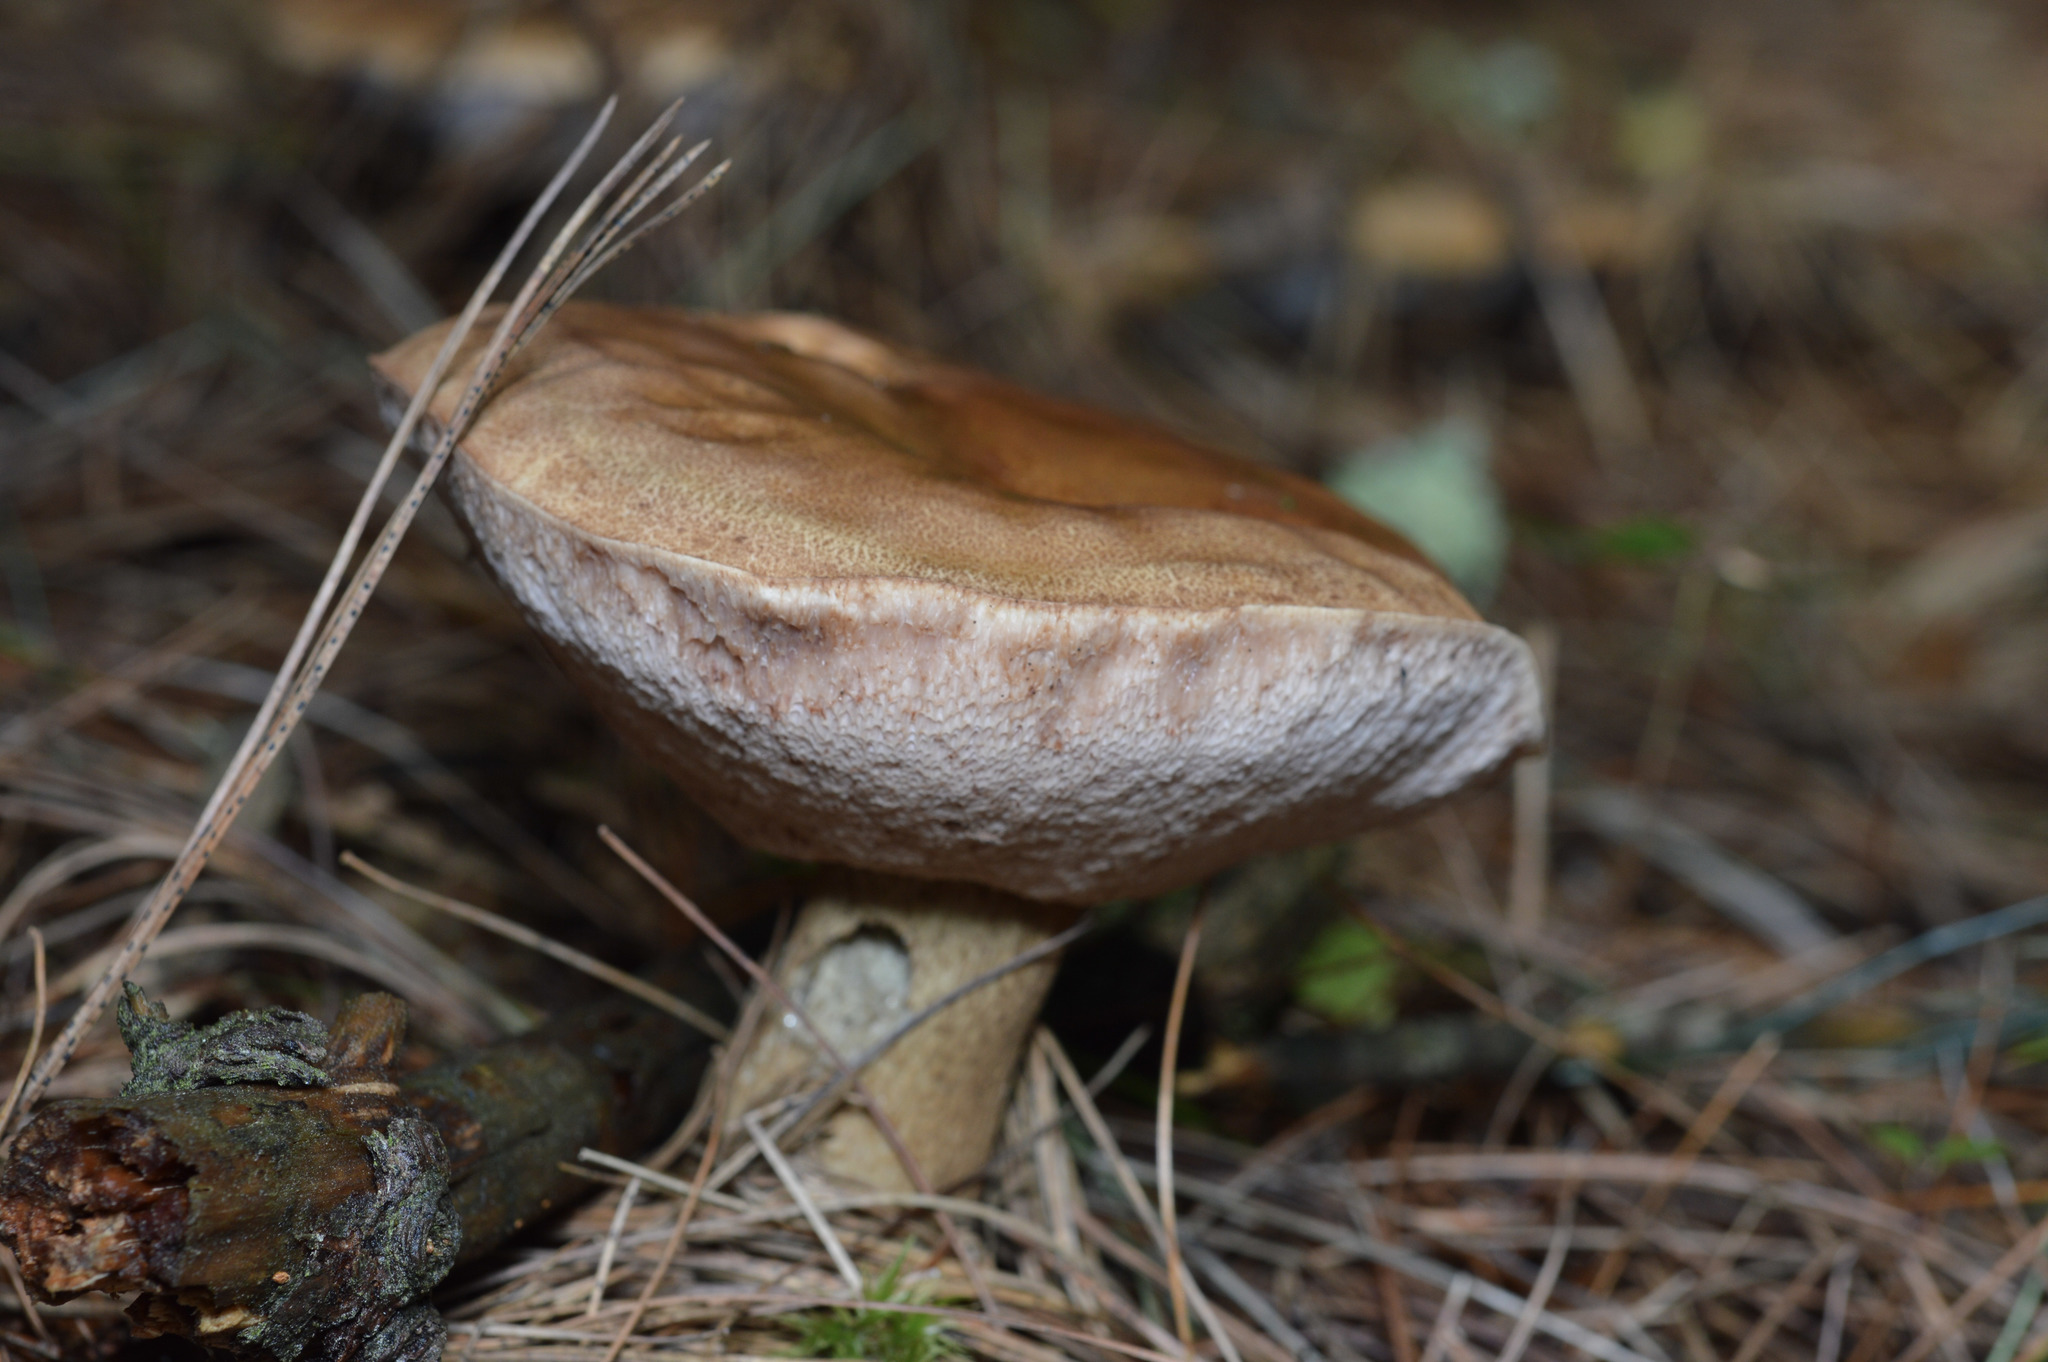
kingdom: Fungi
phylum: Basidiomycota
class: Agaricomycetes
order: Boletales
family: Boletaceae
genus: Tylopilus
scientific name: Tylopilus felleus
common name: Bitter bolete
